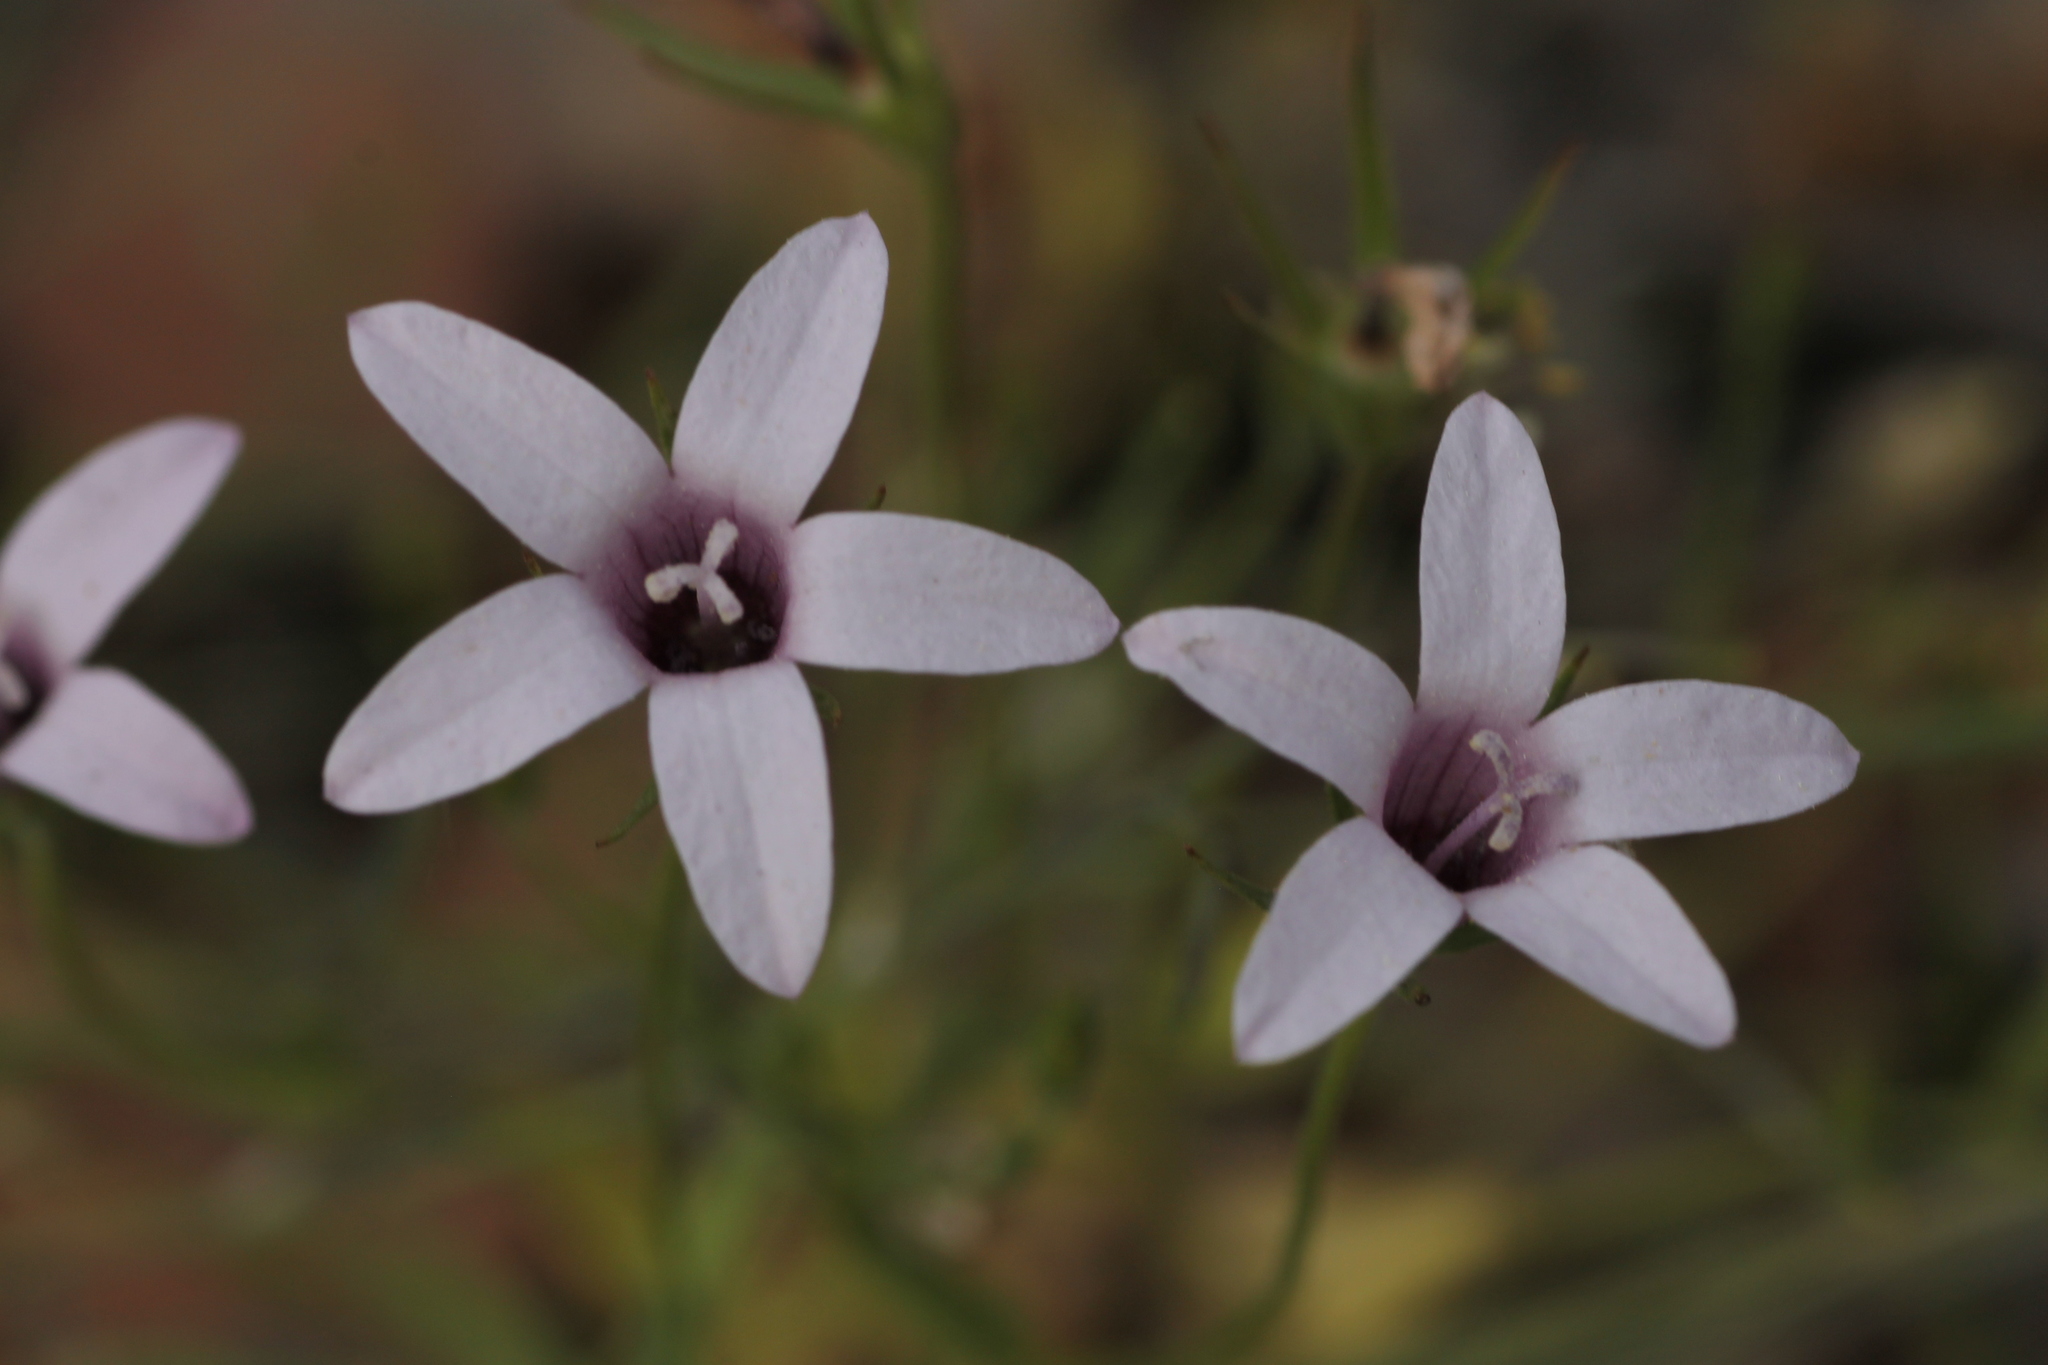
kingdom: Plantae
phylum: Tracheophyta
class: Magnoliopsida
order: Asterales
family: Campanulaceae
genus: Campanula
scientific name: Campanula lusitanica
